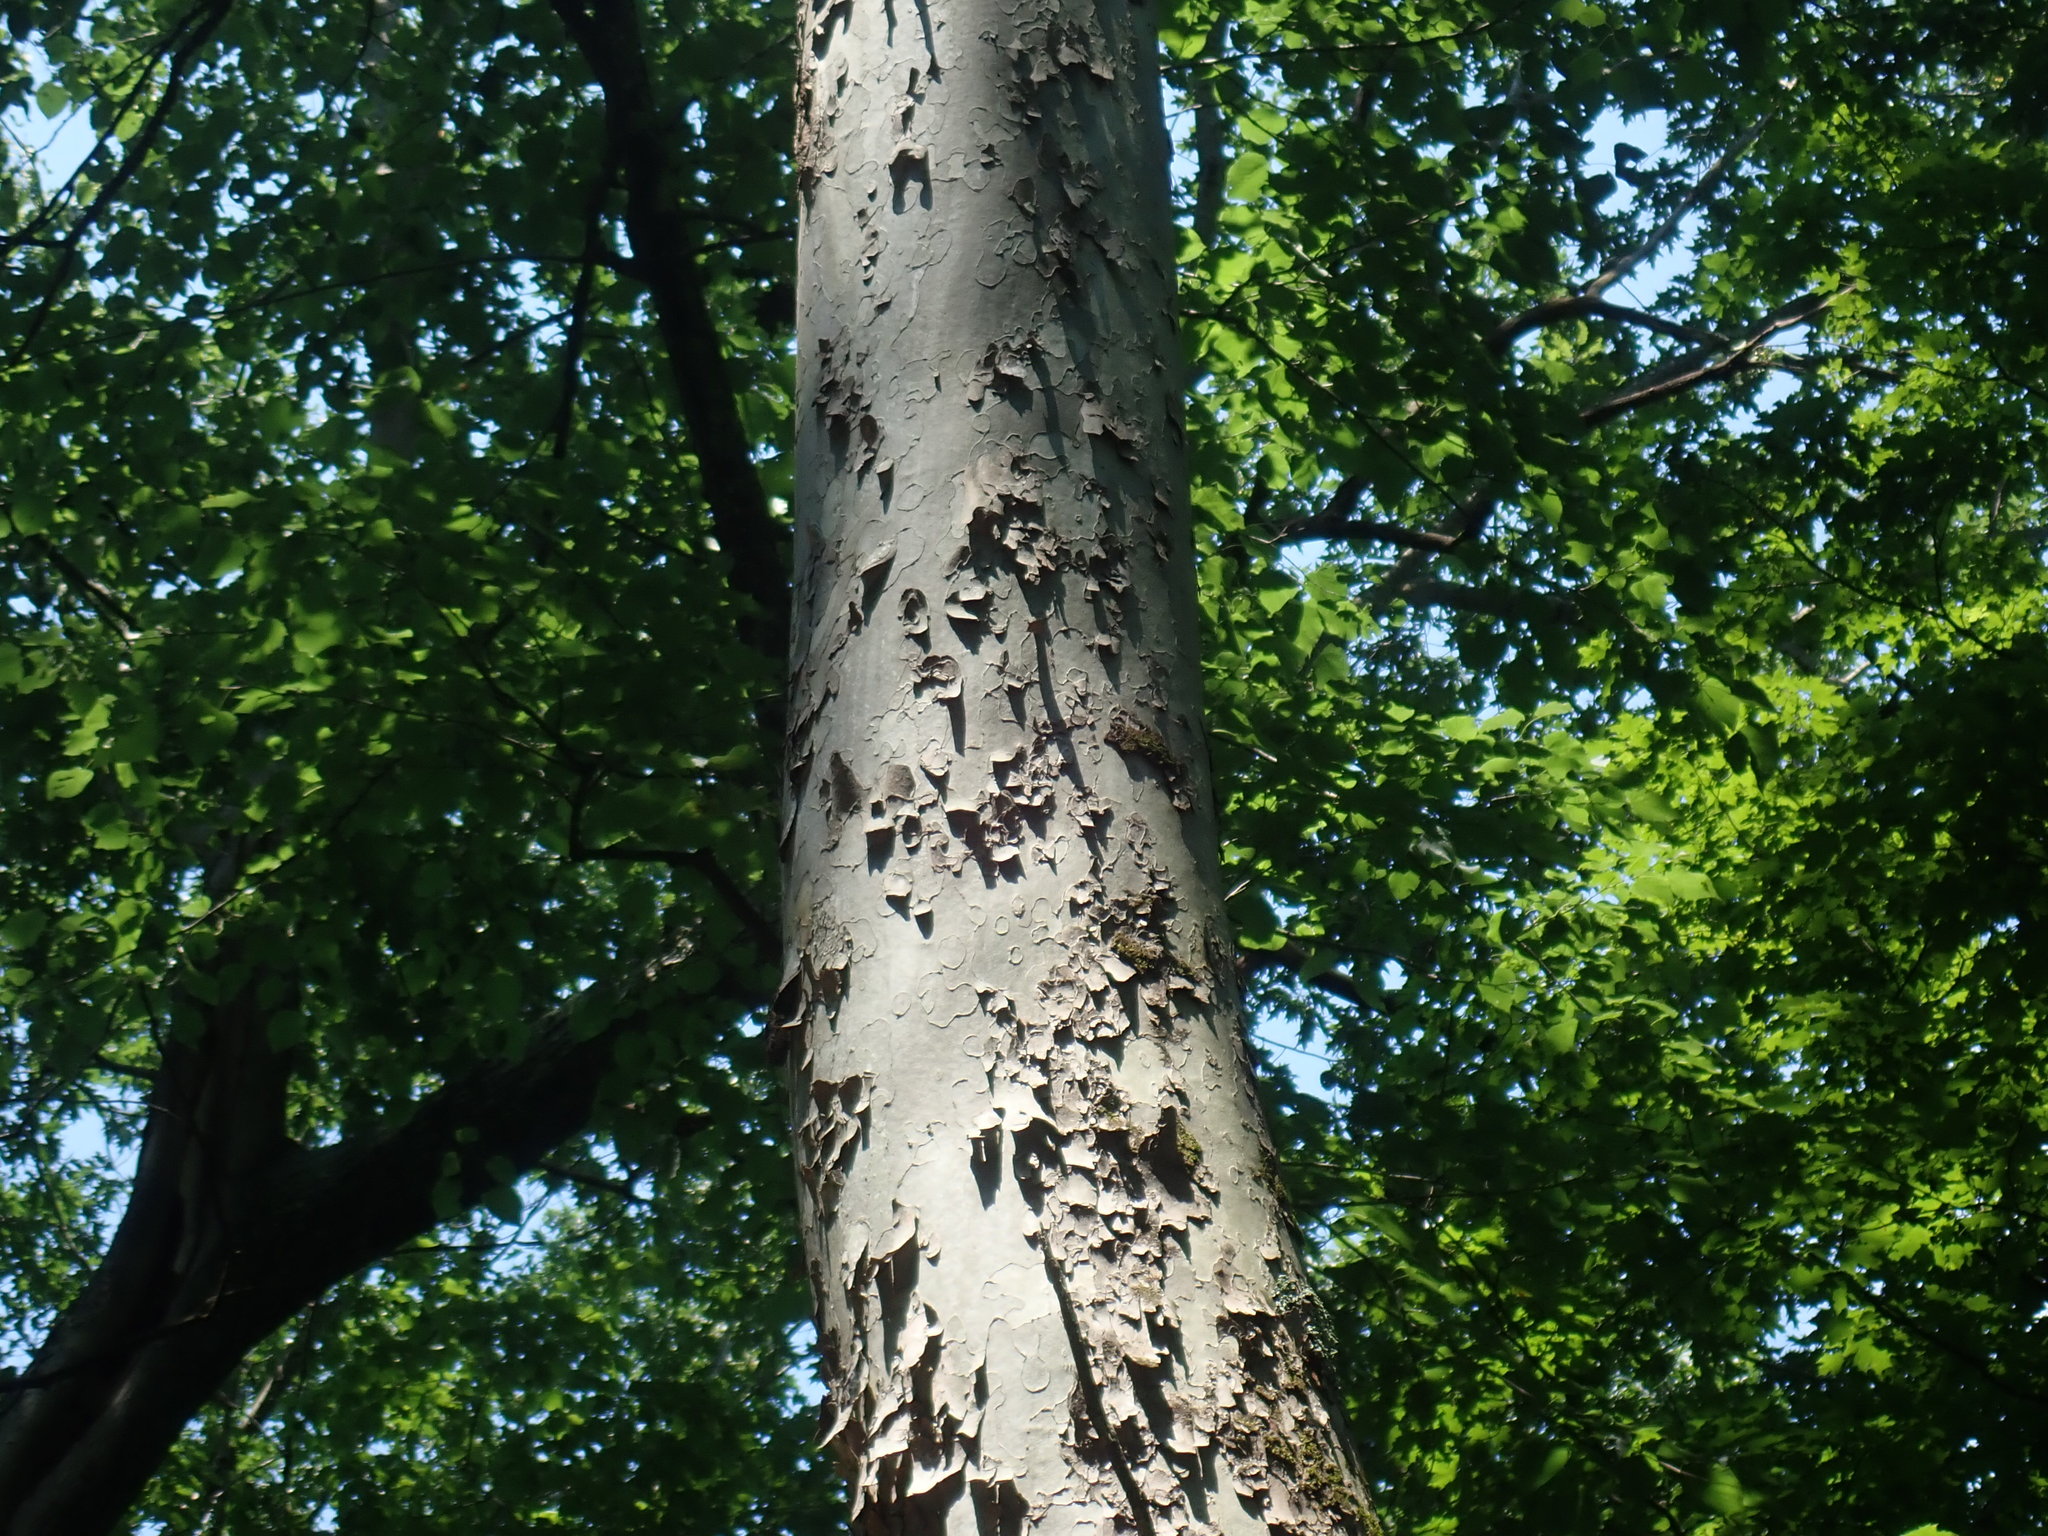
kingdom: Plantae
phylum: Tracheophyta
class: Magnoliopsida
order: Proteales
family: Platanaceae
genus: Platanus
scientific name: Platanus occidentalis
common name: American sycamore
